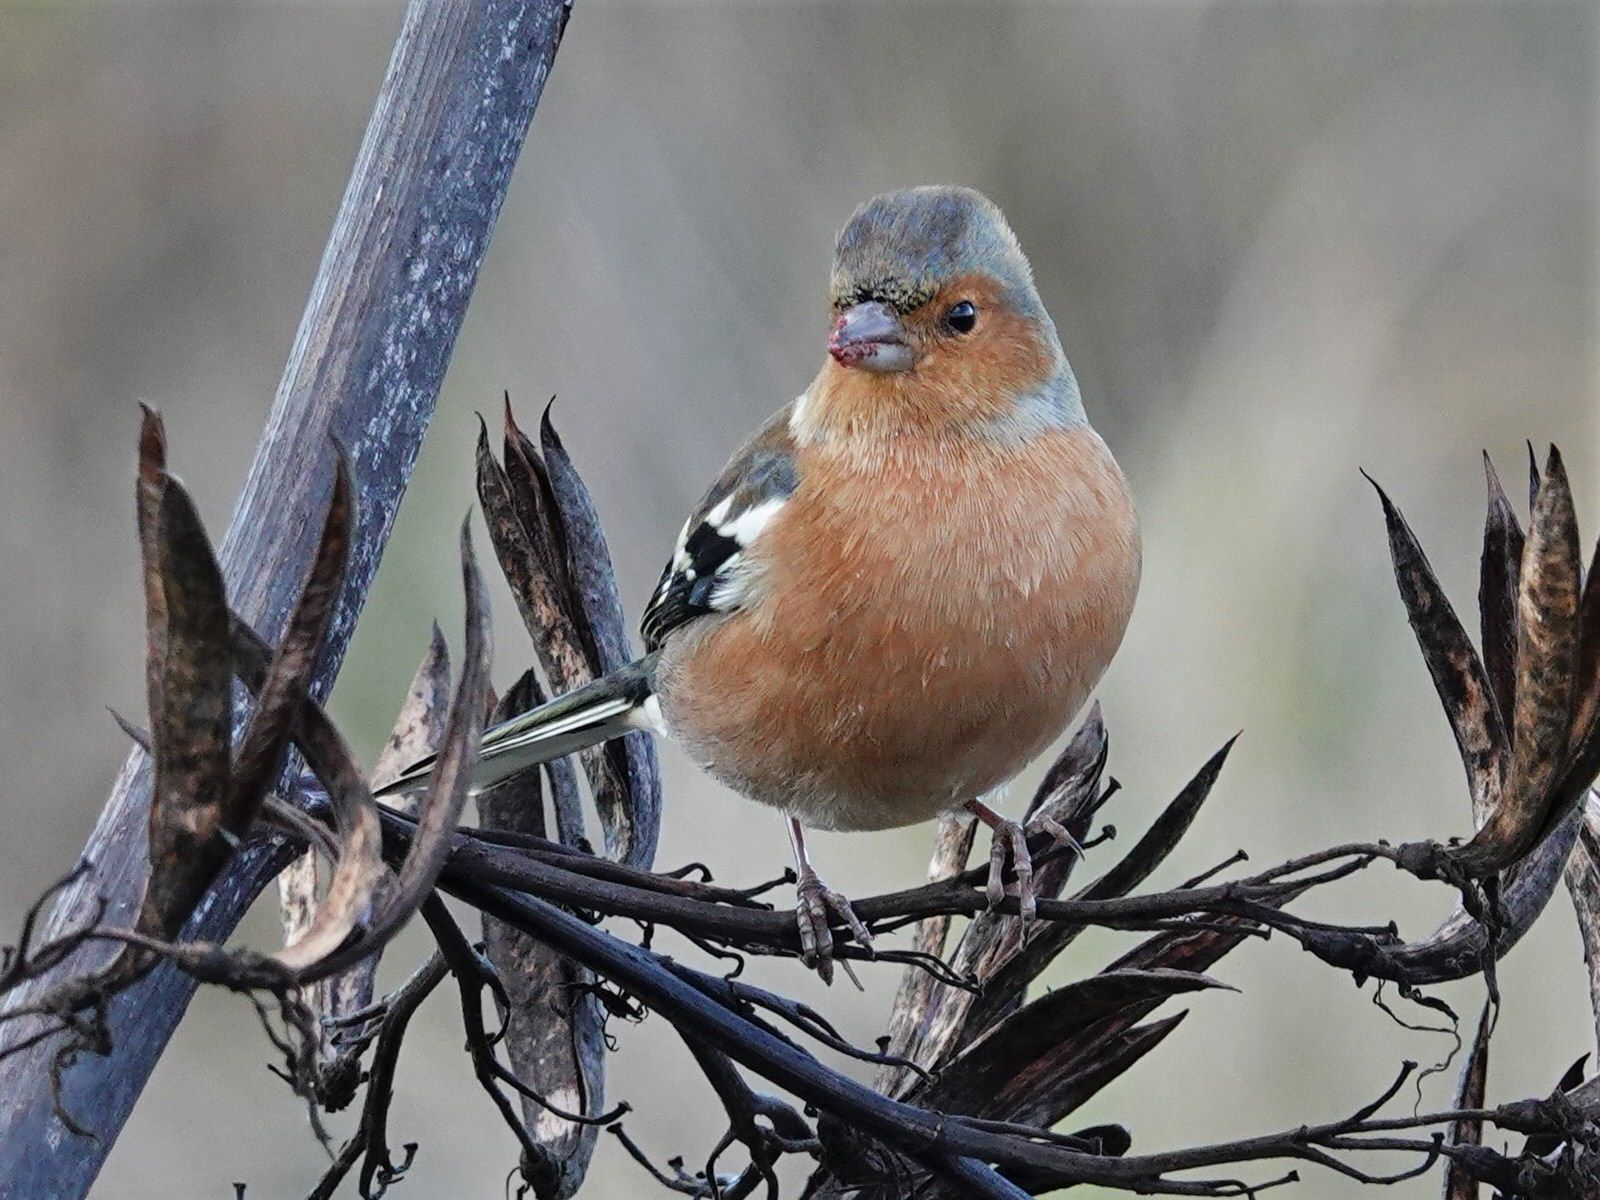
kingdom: Animalia
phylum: Chordata
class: Aves
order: Passeriformes
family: Fringillidae
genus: Fringilla
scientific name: Fringilla coelebs
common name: Common chaffinch
